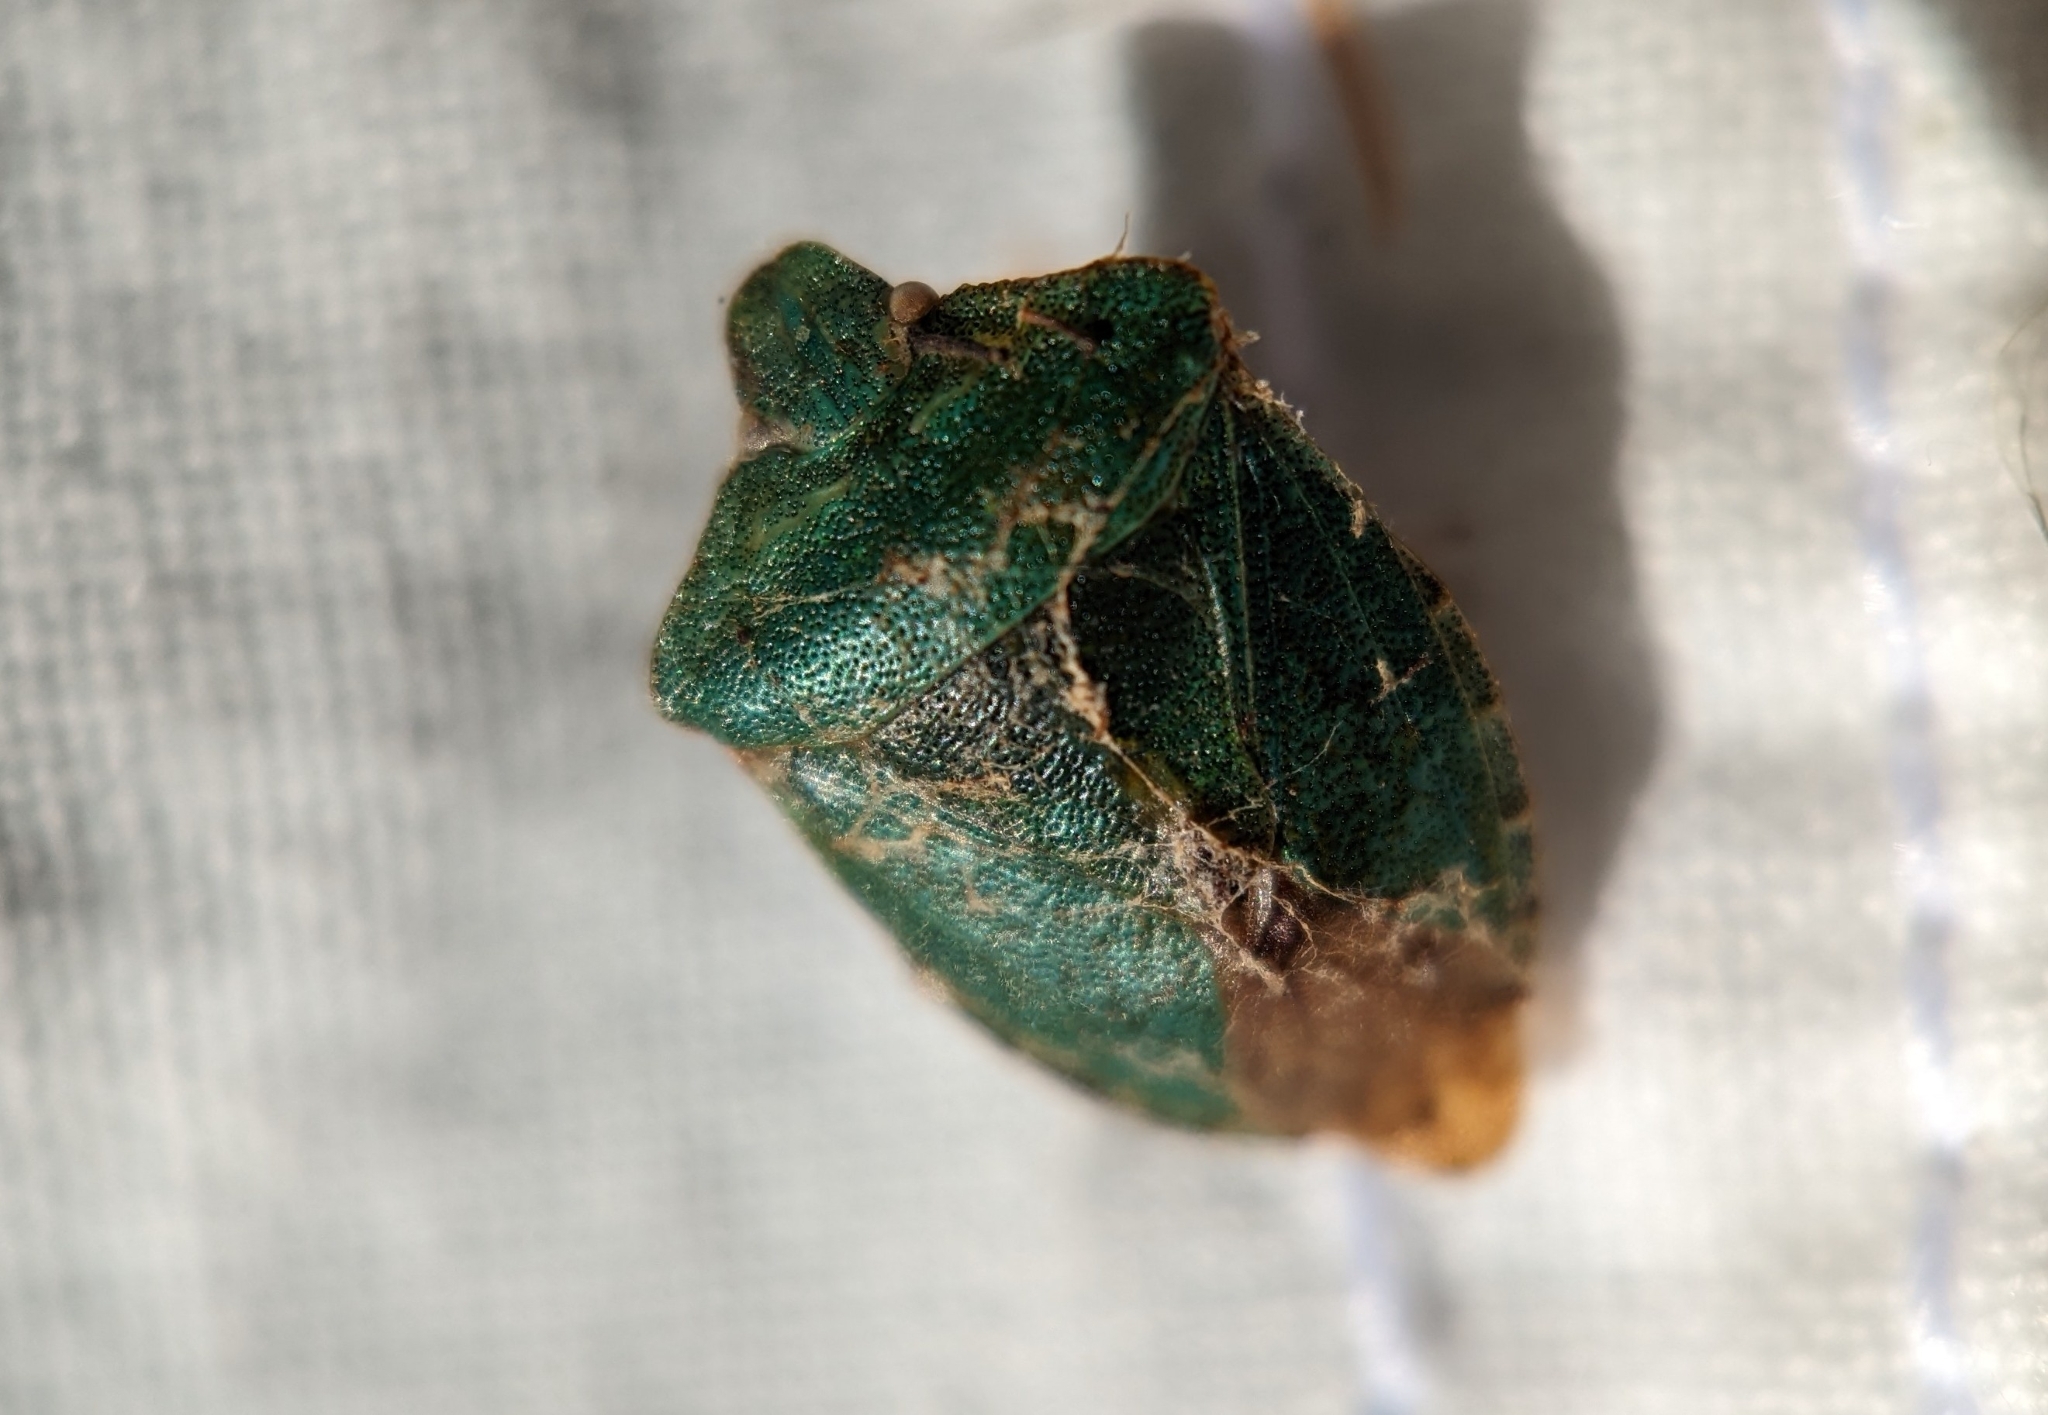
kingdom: Animalia
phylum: Arthropoda
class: Insecta
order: Hemiptera
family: Pentatomidae
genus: Palomena
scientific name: Palomena prasina
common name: Green shieldbug
